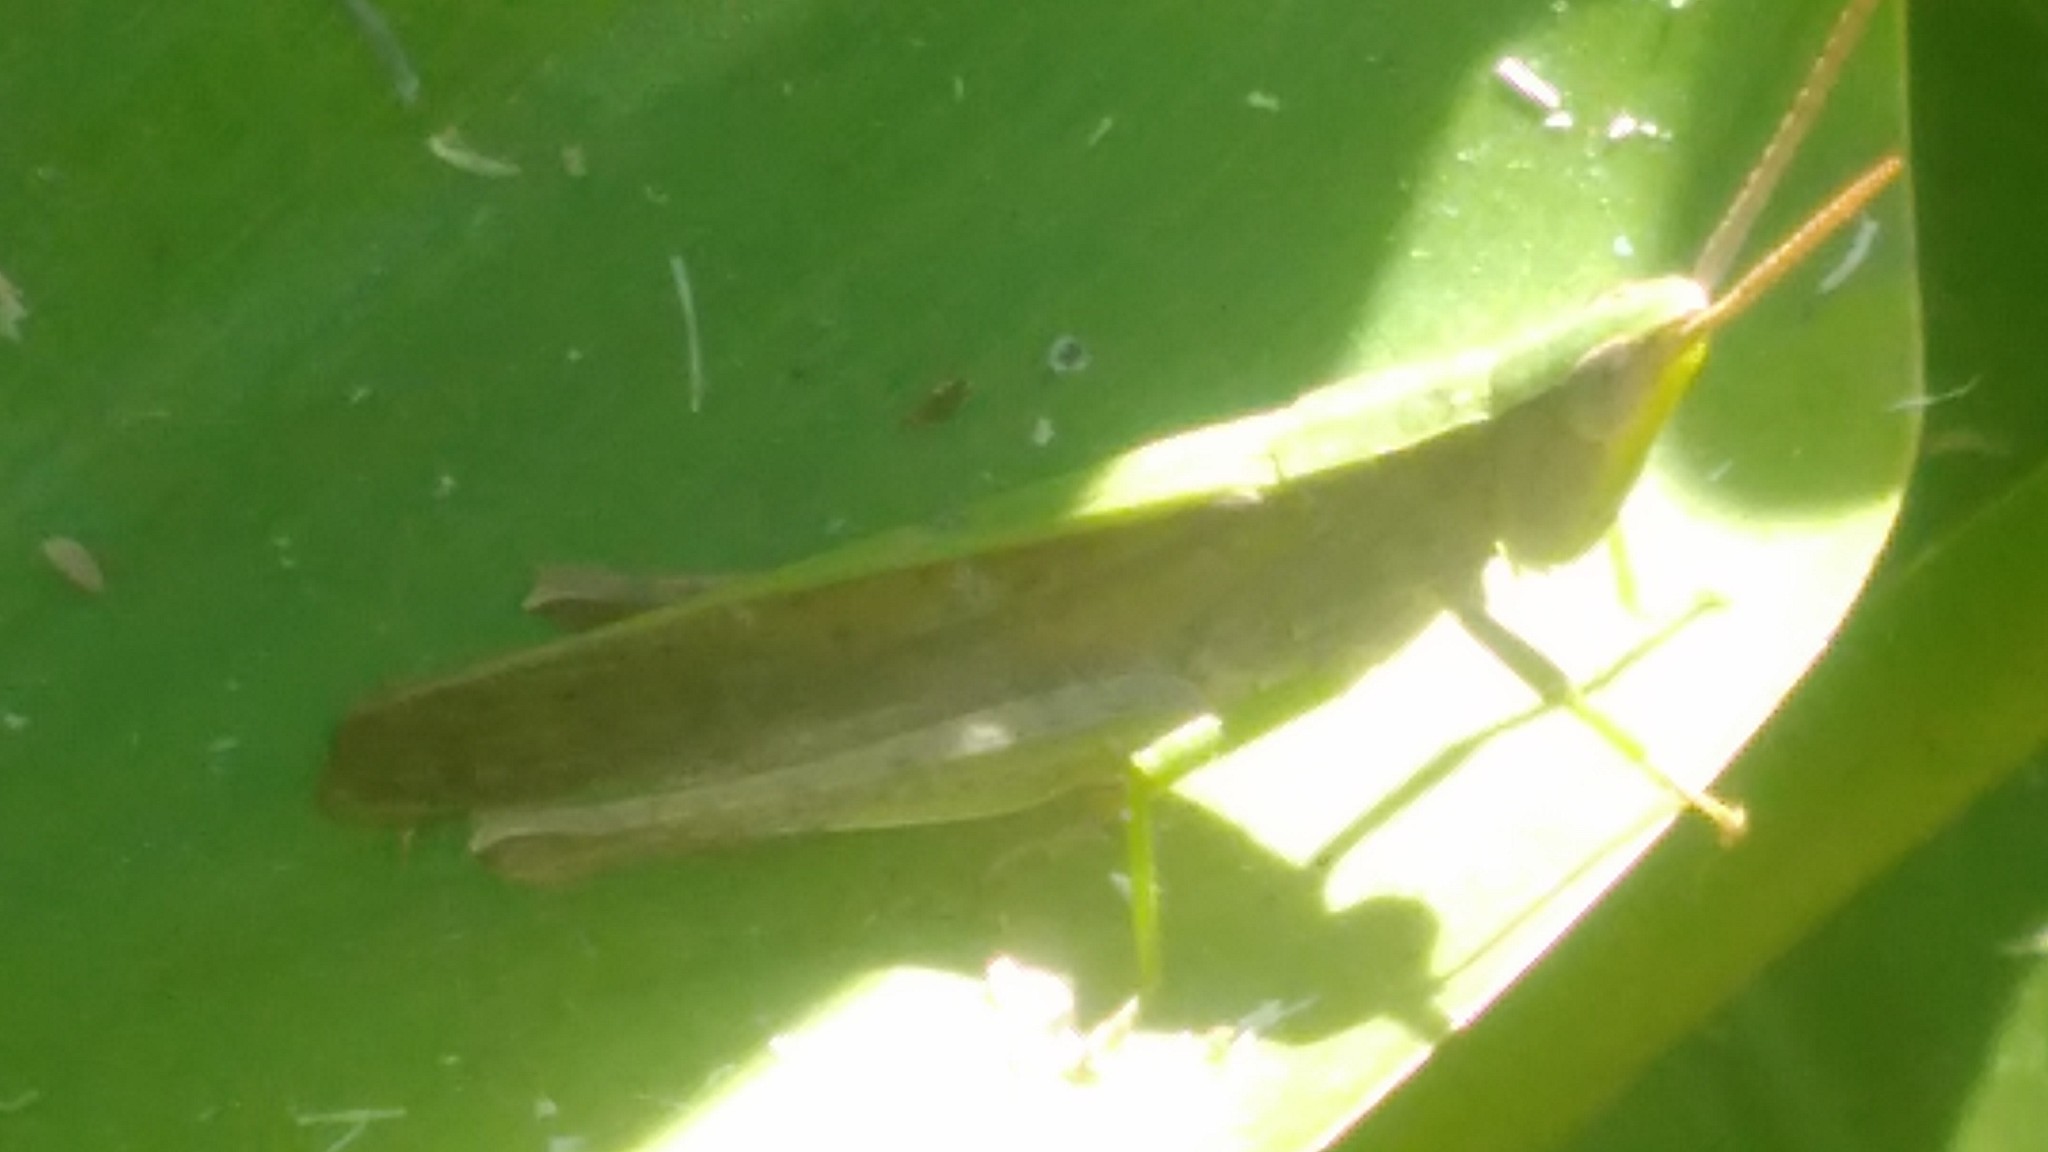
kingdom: Animalia
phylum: Arthropoda
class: Insecta
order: Orthoptera
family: Acrididae
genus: Metaleptea
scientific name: Metaleptea adspersa
